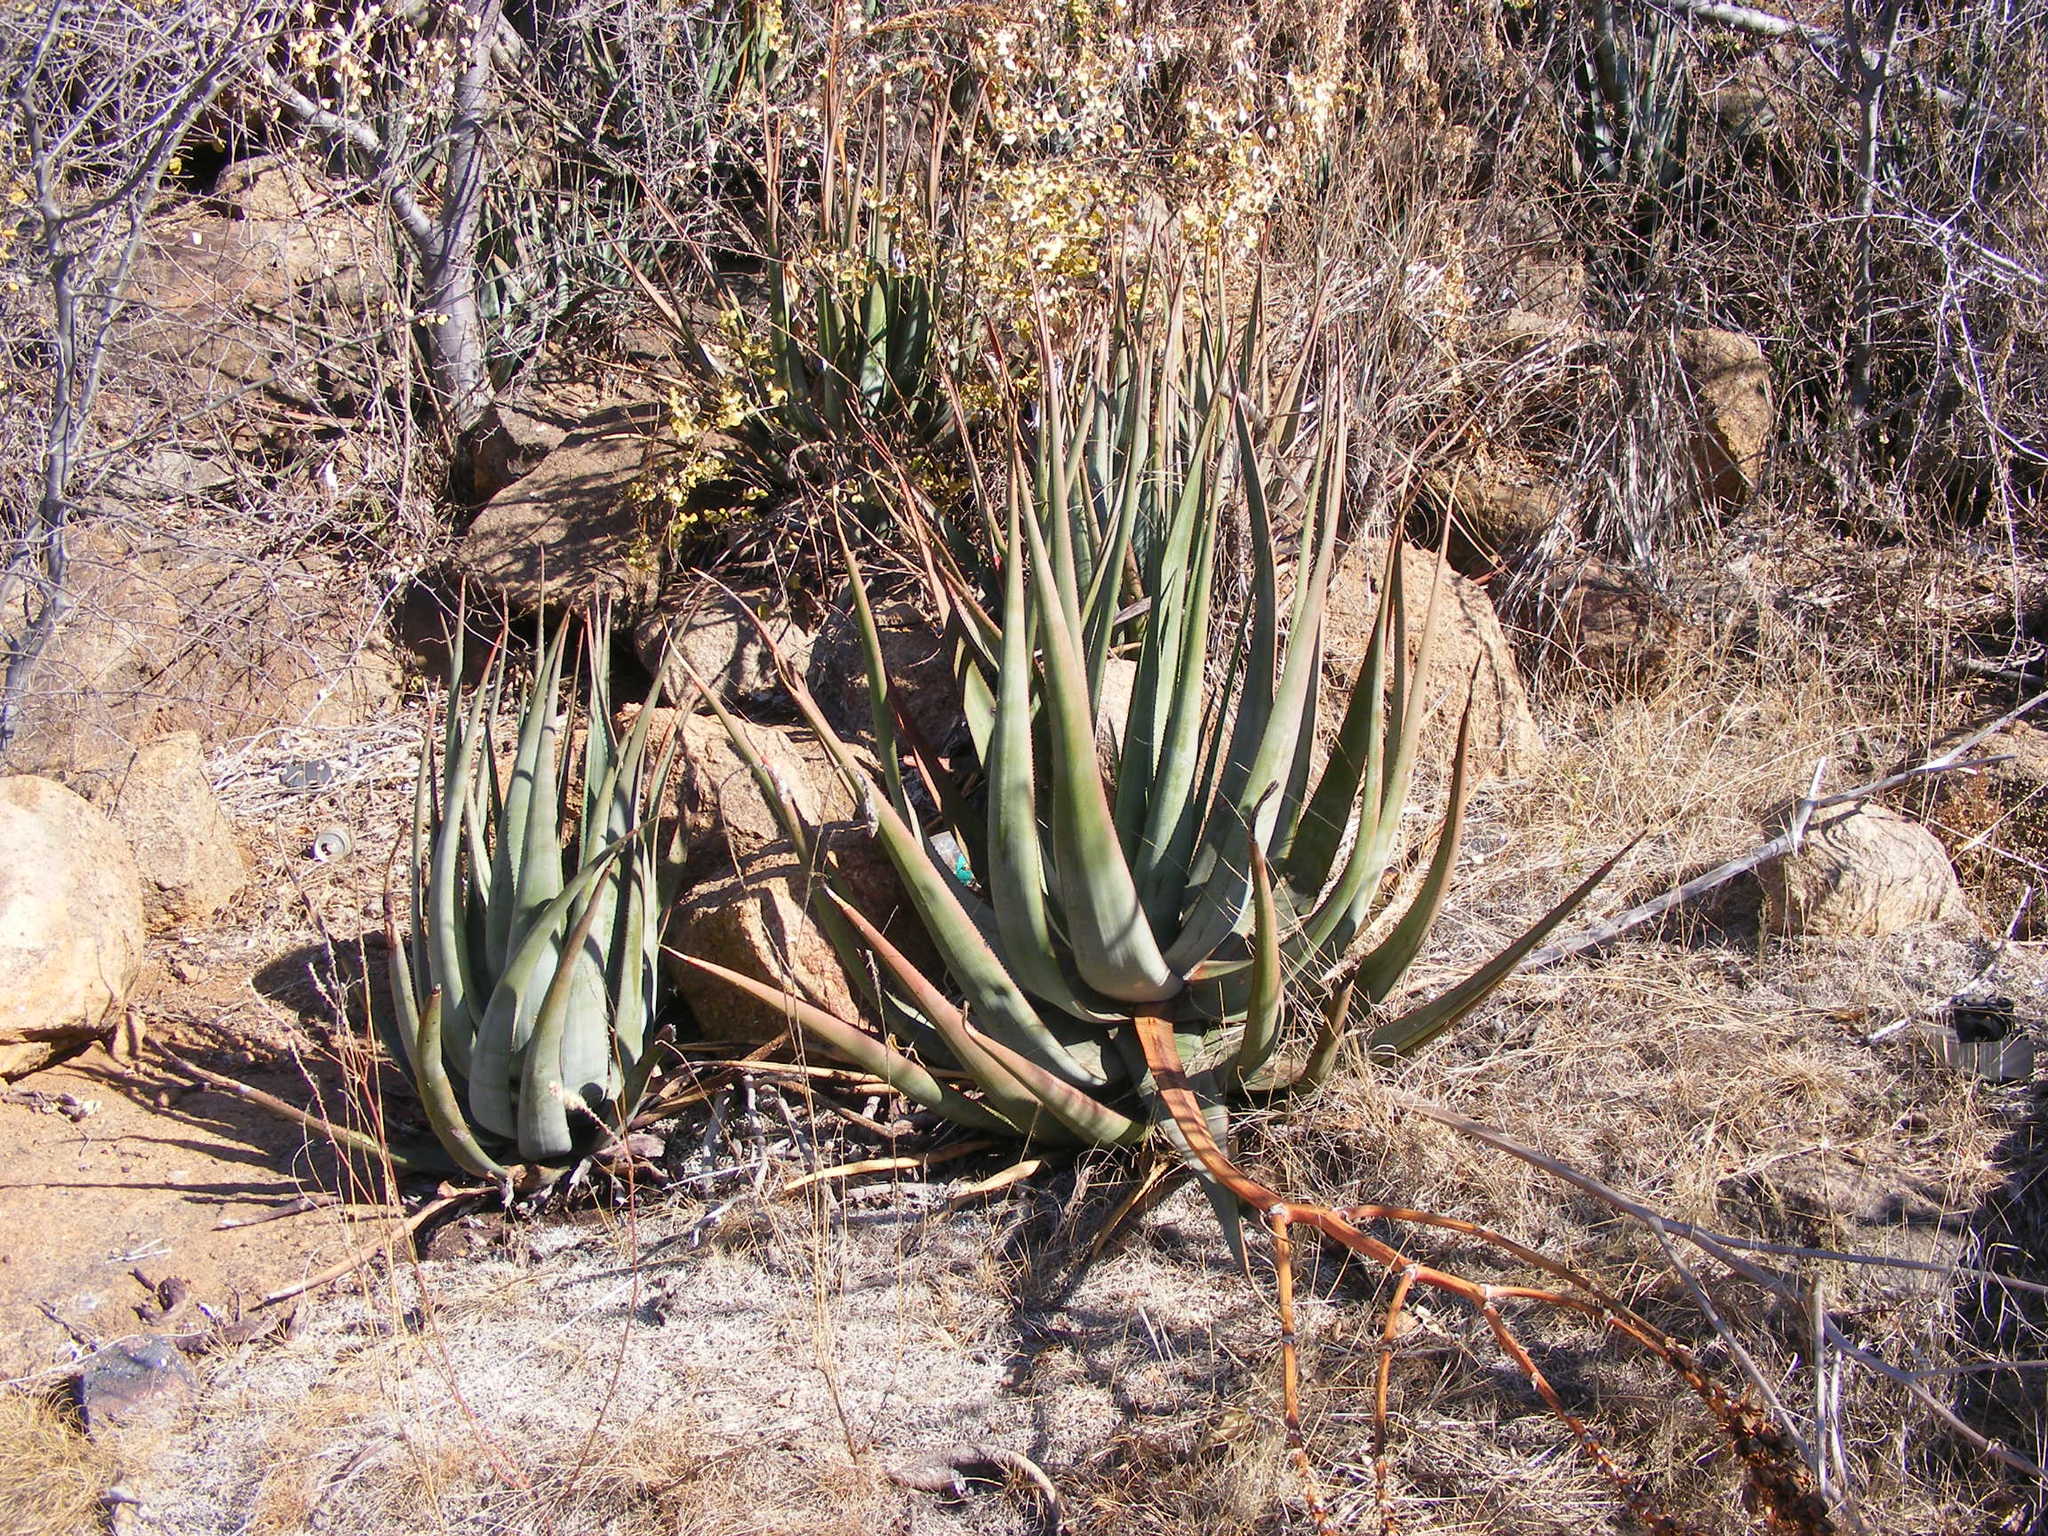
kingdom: Plantae
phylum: Tracheophyta
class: Liliopsida
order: Asparagales
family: Asphodelaceae
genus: Aloe
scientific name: Aloe cryptopoda
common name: Dr. kirk's aloe
